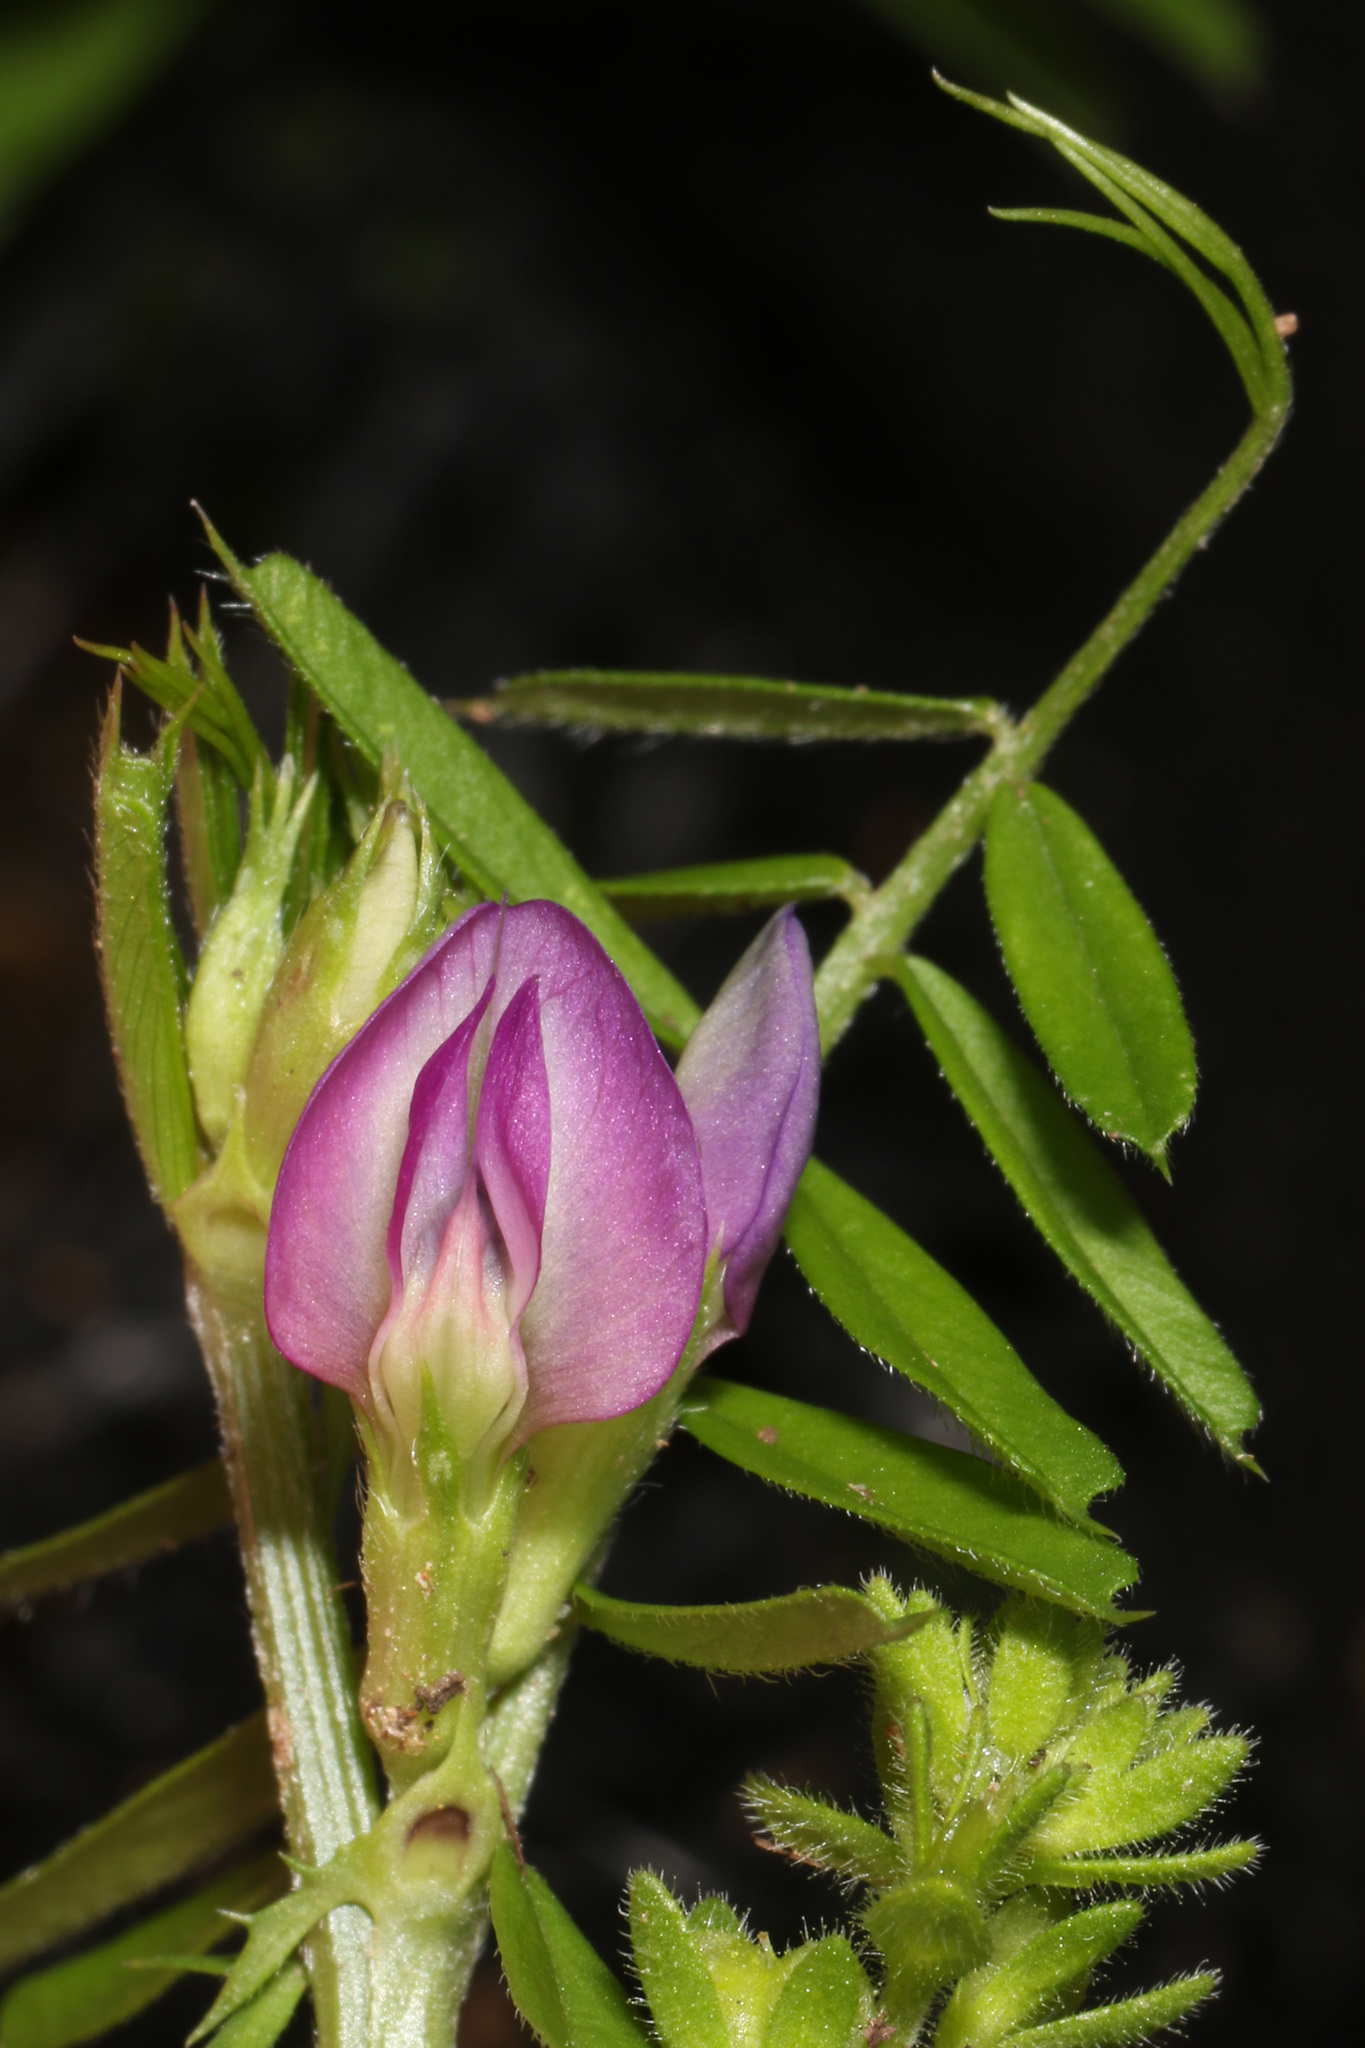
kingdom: Plantae
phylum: Tracheophyta
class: Magnoliopsida
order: Fabales
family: Fabaceae
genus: Vicia
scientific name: Vicia sativa
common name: Garden vetch
